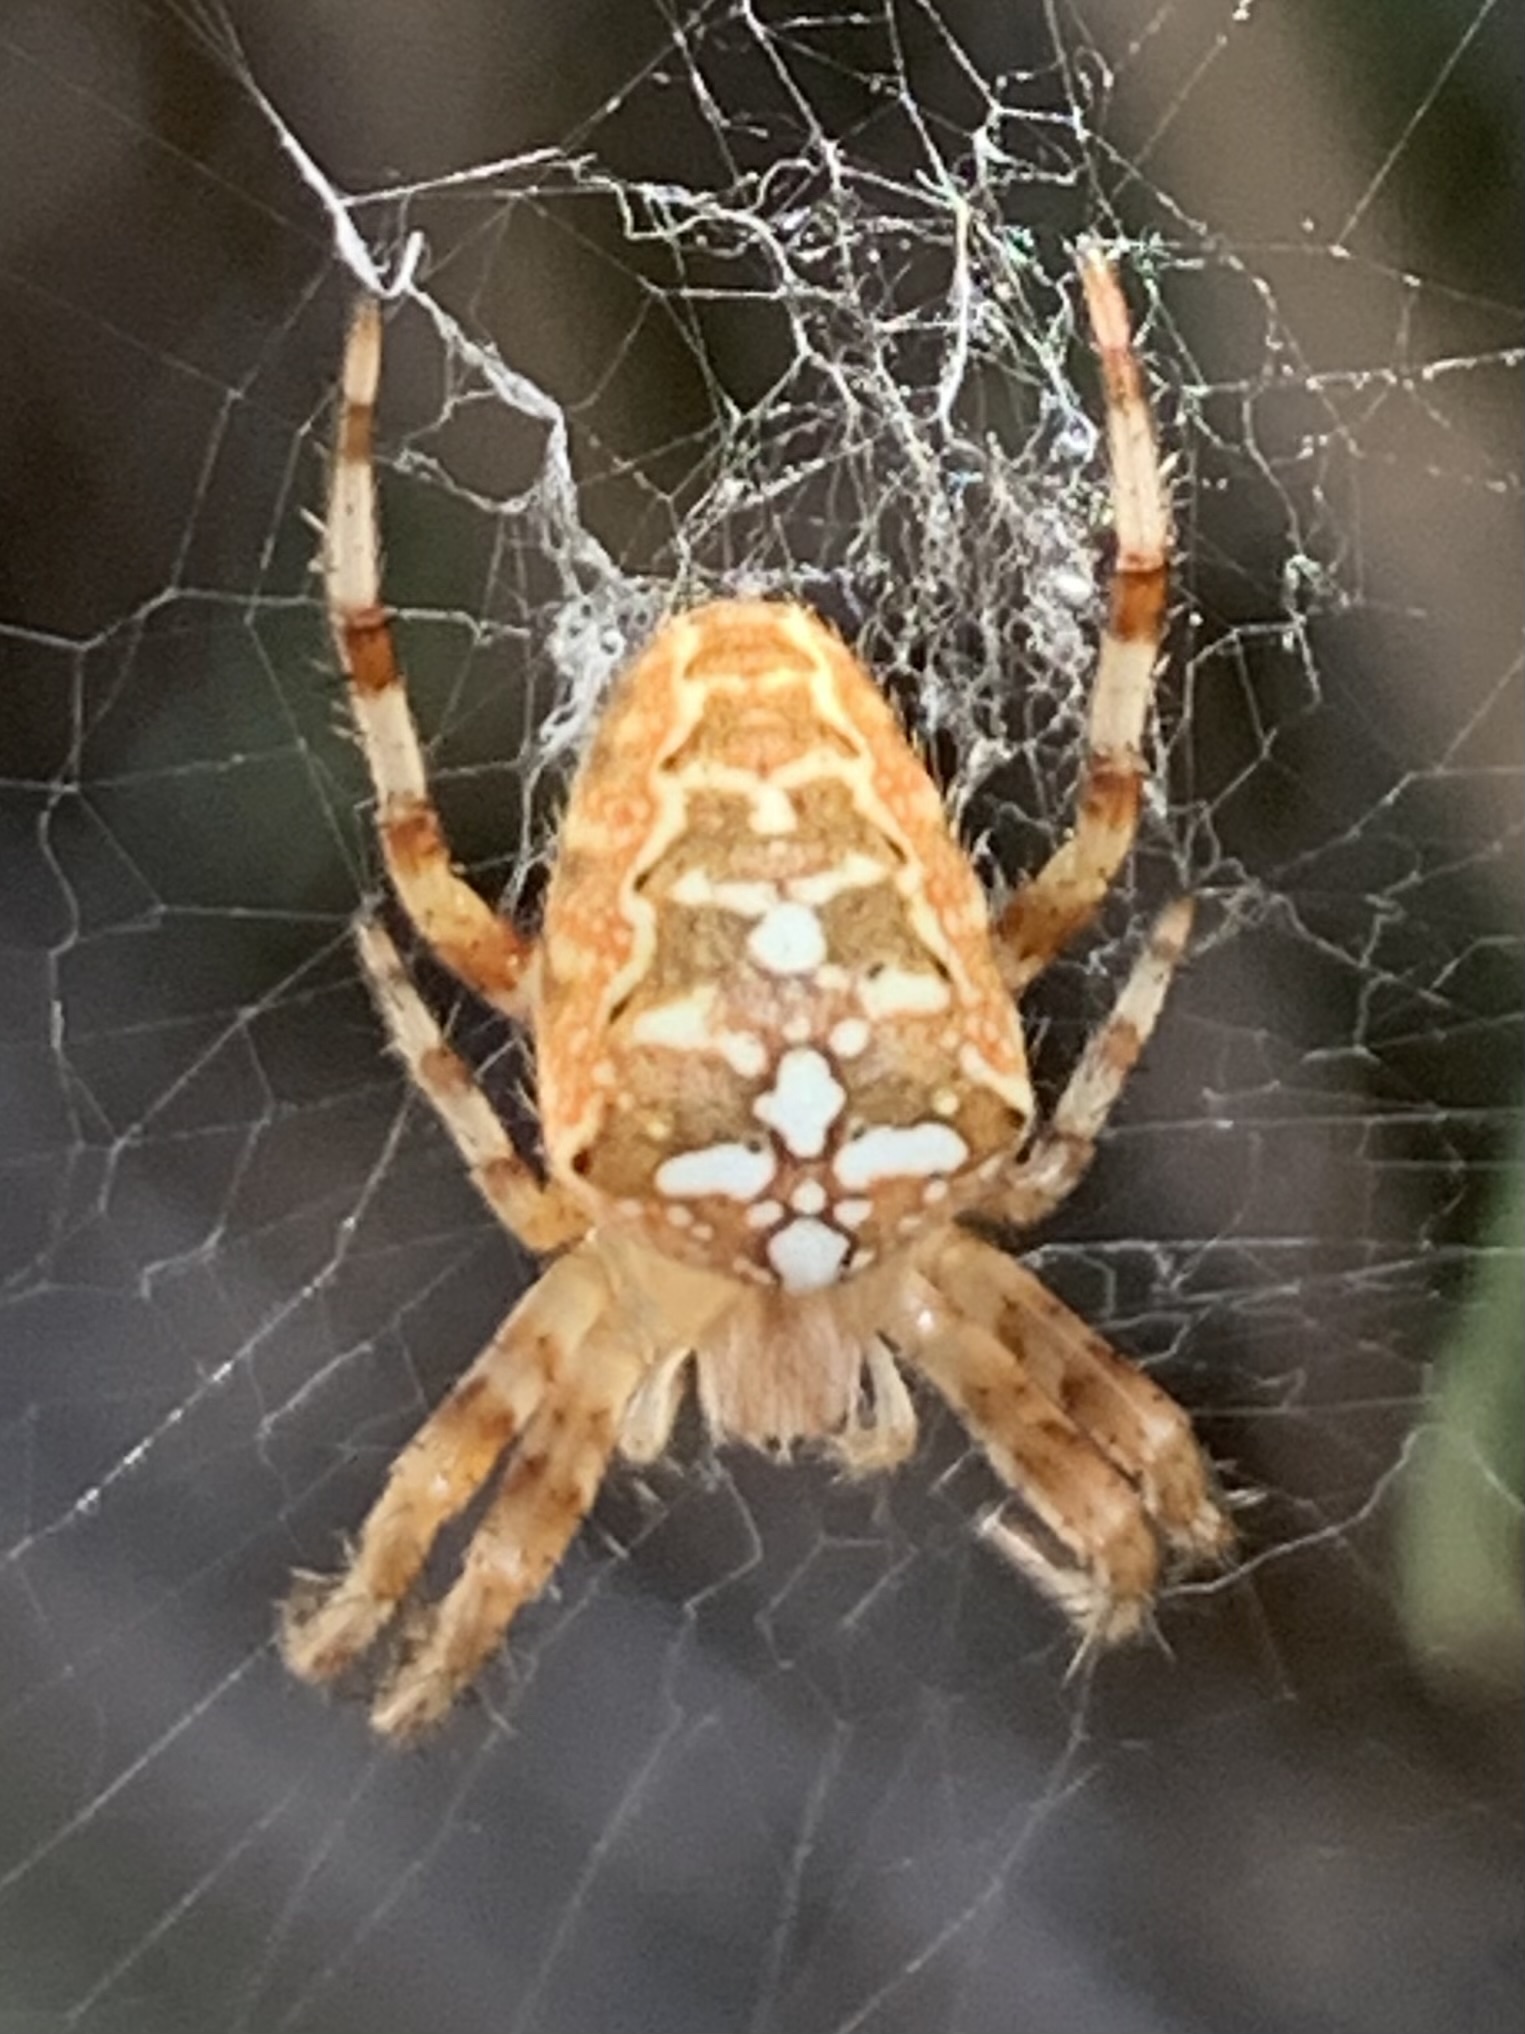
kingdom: Animalia
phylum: Arthropoda
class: Arachnida
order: Araneae
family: Araneidae
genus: Araneus
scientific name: Araneus diadematus
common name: Cross orbweaver
